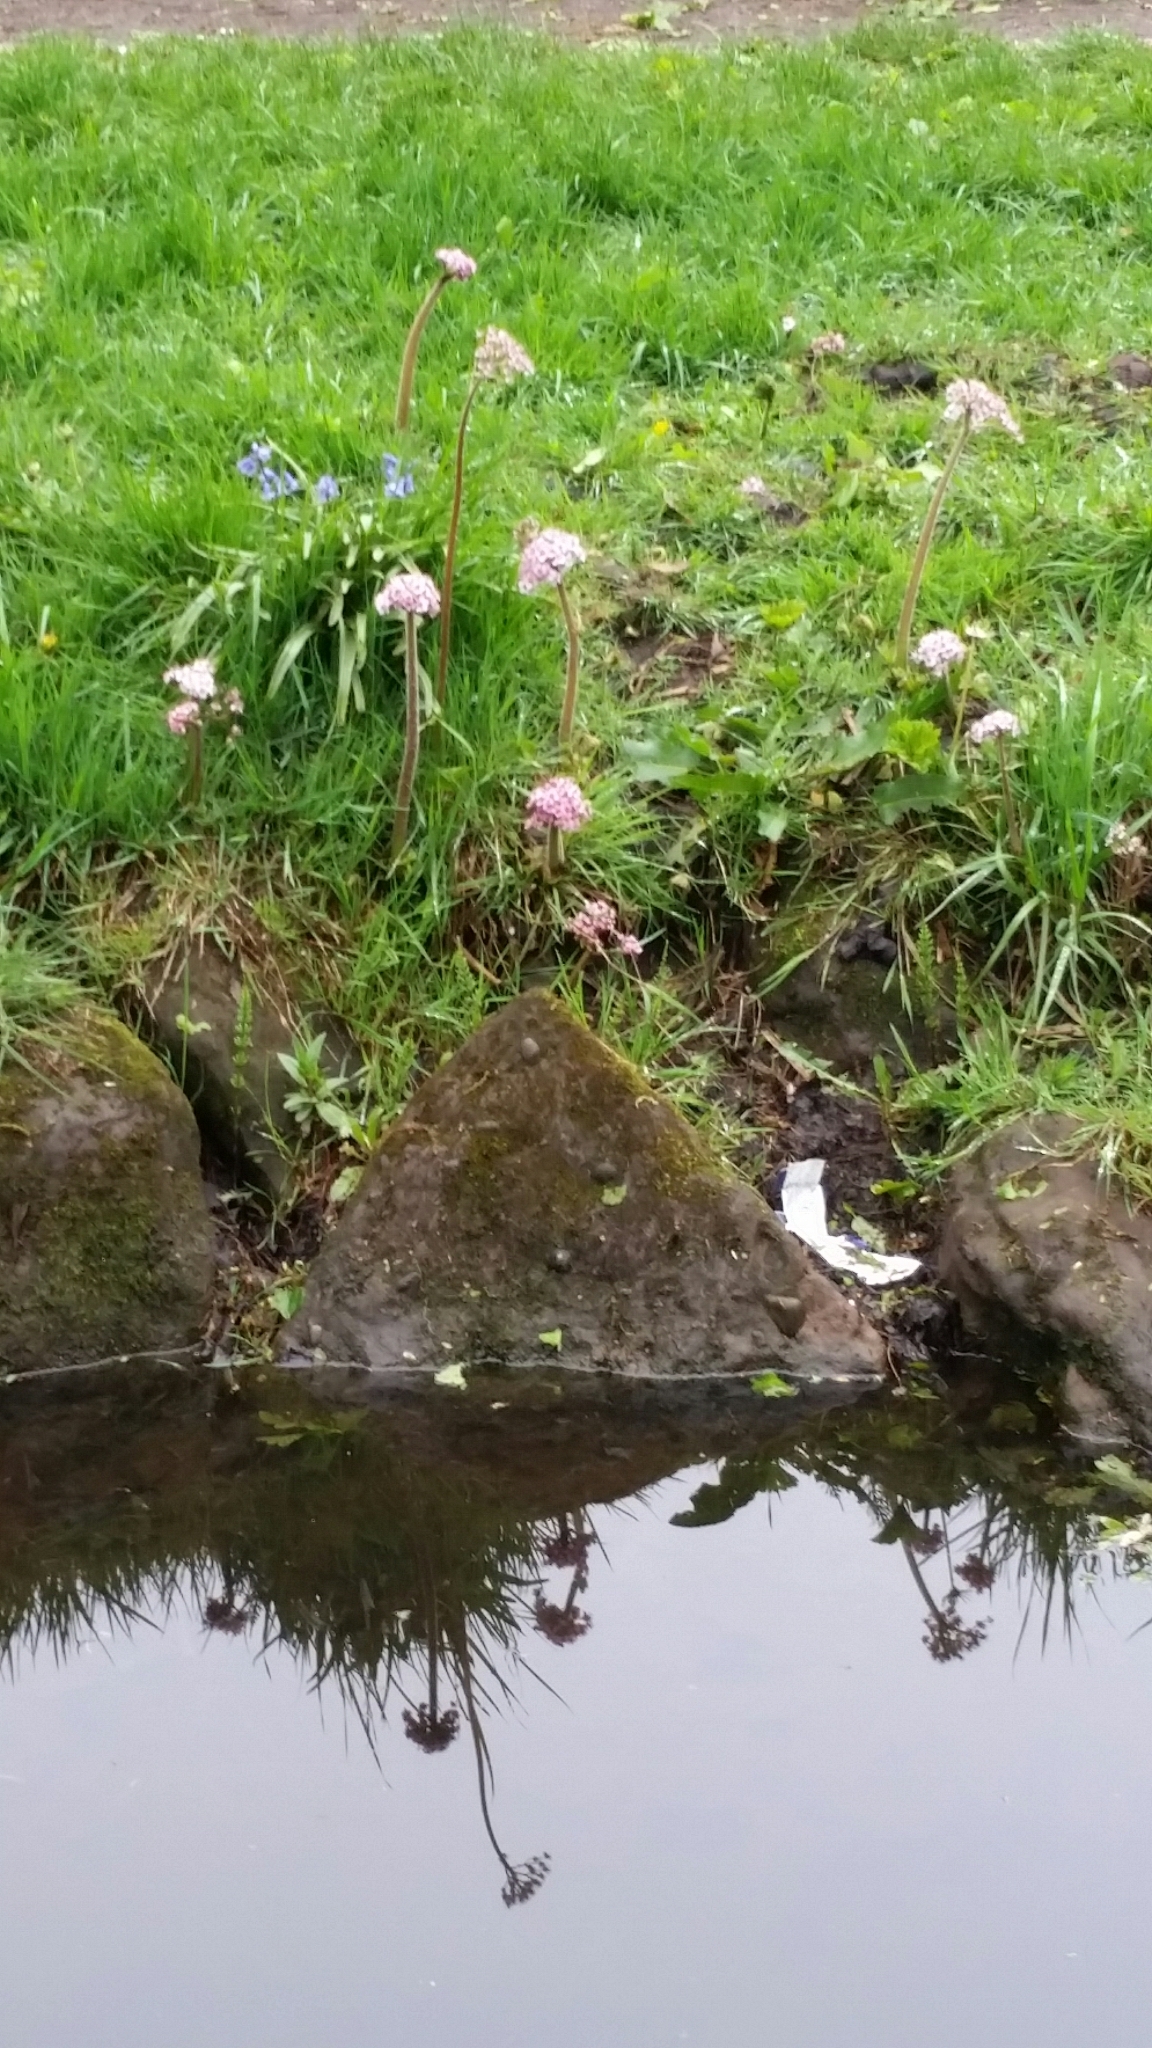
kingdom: Plantae
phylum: Tracheophyta
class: Magnoliopsida
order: Saxifragales
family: Saxifragaceae
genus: Darmera
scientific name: Darmera peltata
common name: Indian-rhubarb
